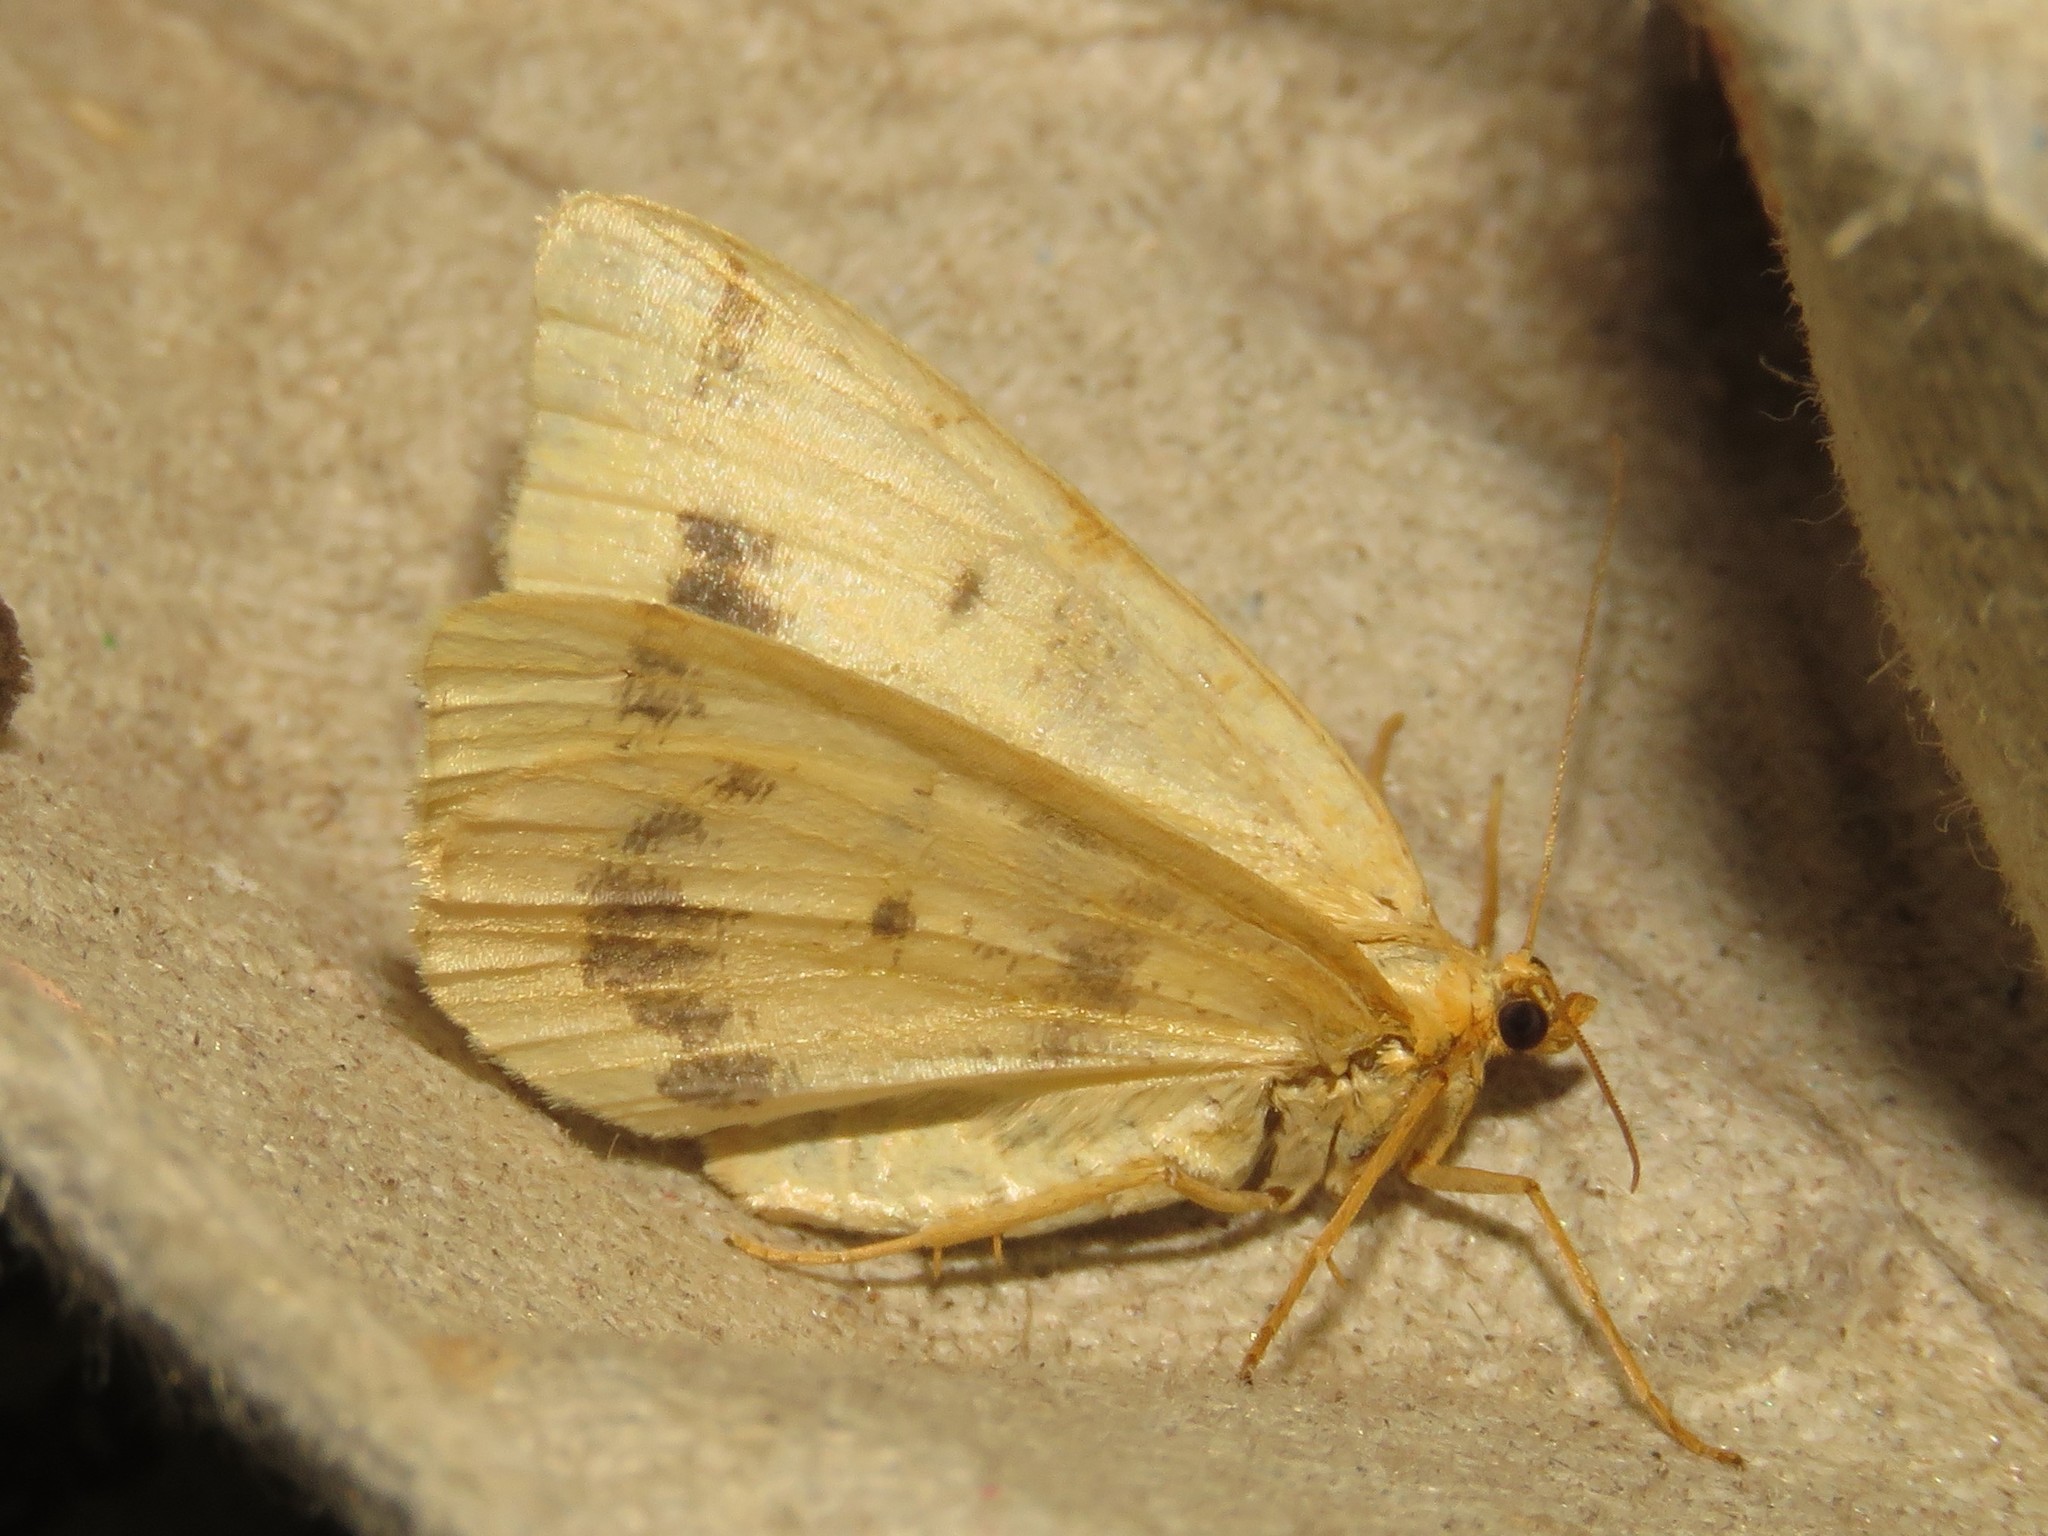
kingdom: Animalia
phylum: Arthropoda
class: Insecta
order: Lepidoptera
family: Geometridae
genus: Macaria
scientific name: Macaria ribearia
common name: Currant spanworm moth
